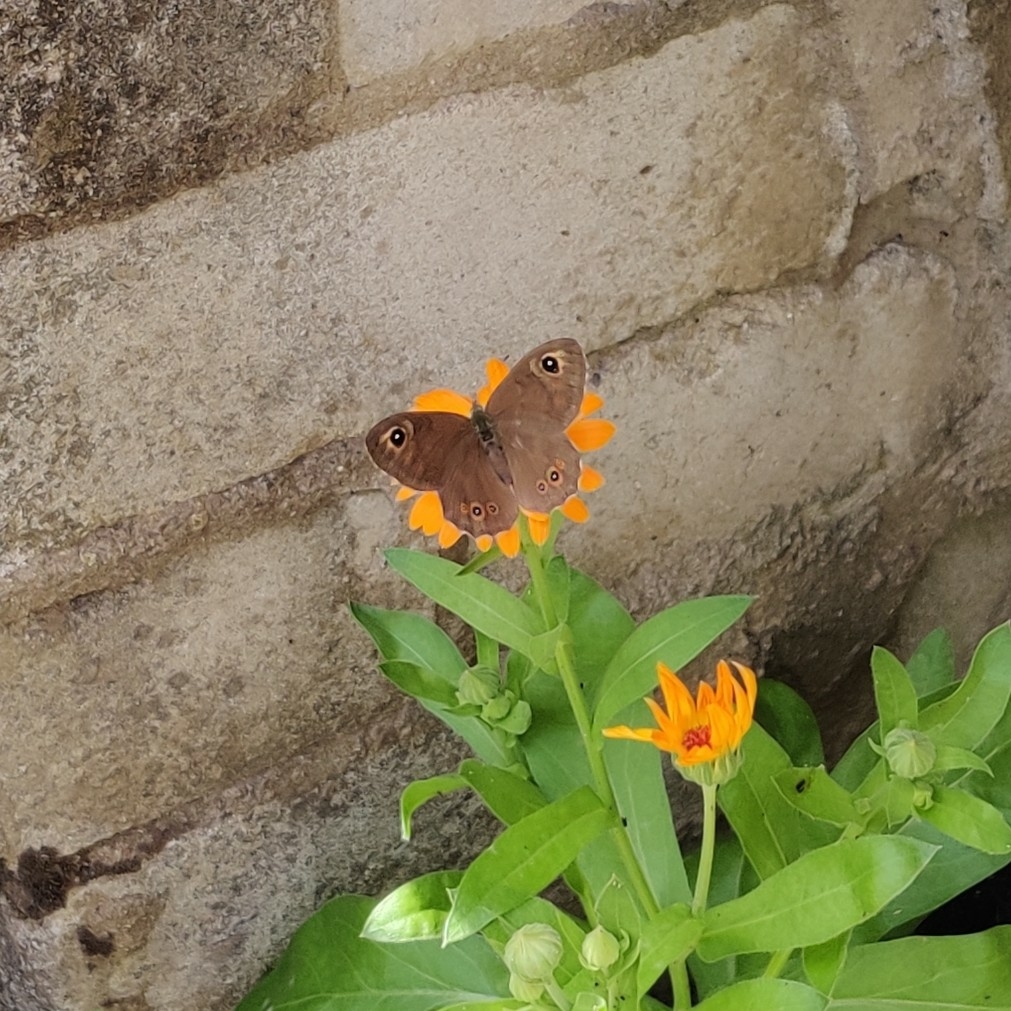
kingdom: Animalia
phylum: Arthropoda
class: Insecta
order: Lepidoptera
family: Nymphalidae
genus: Pararge
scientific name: Pararge Lasiommata maera
